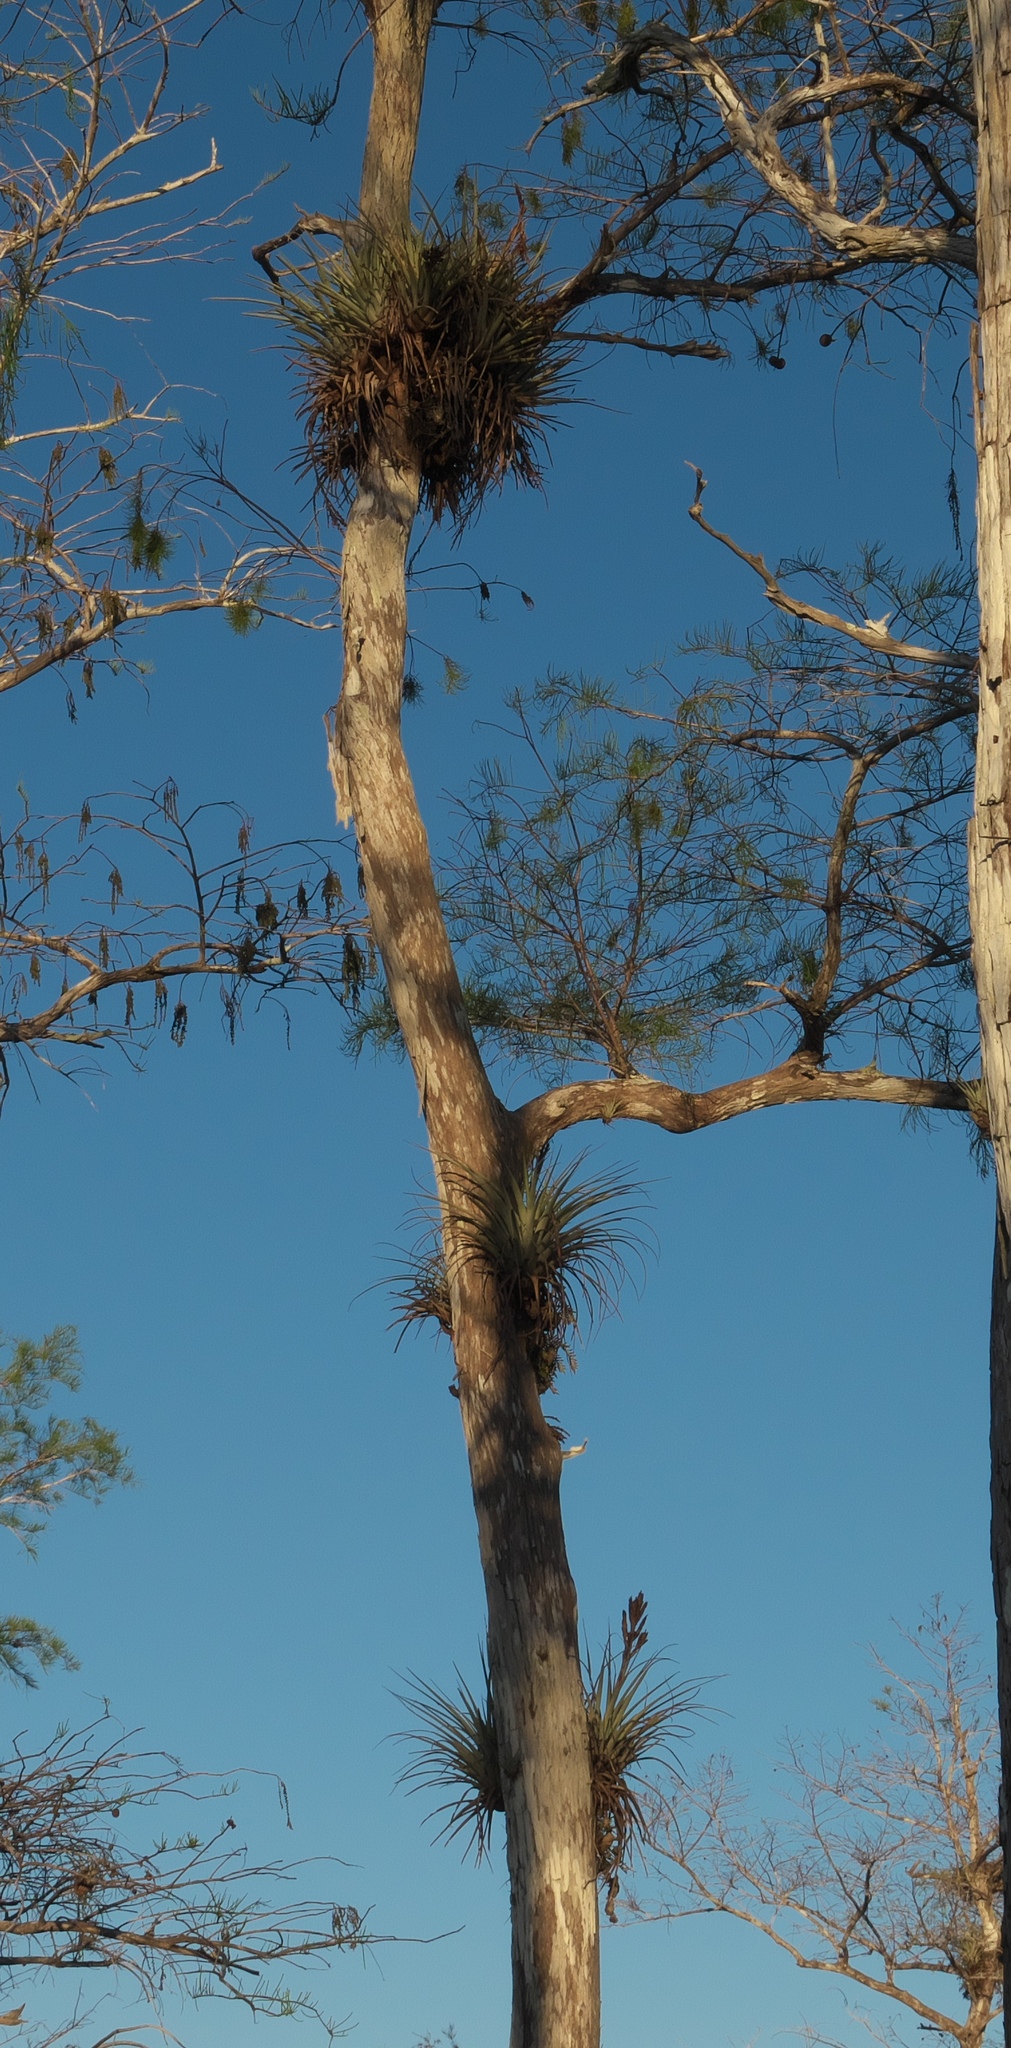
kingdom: Plantae
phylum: Tracheophyta
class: Liliopsida
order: Poales
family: Bromeliaceae
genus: Tillandsia
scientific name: Tillandsia fasciculata
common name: Giant airplant
